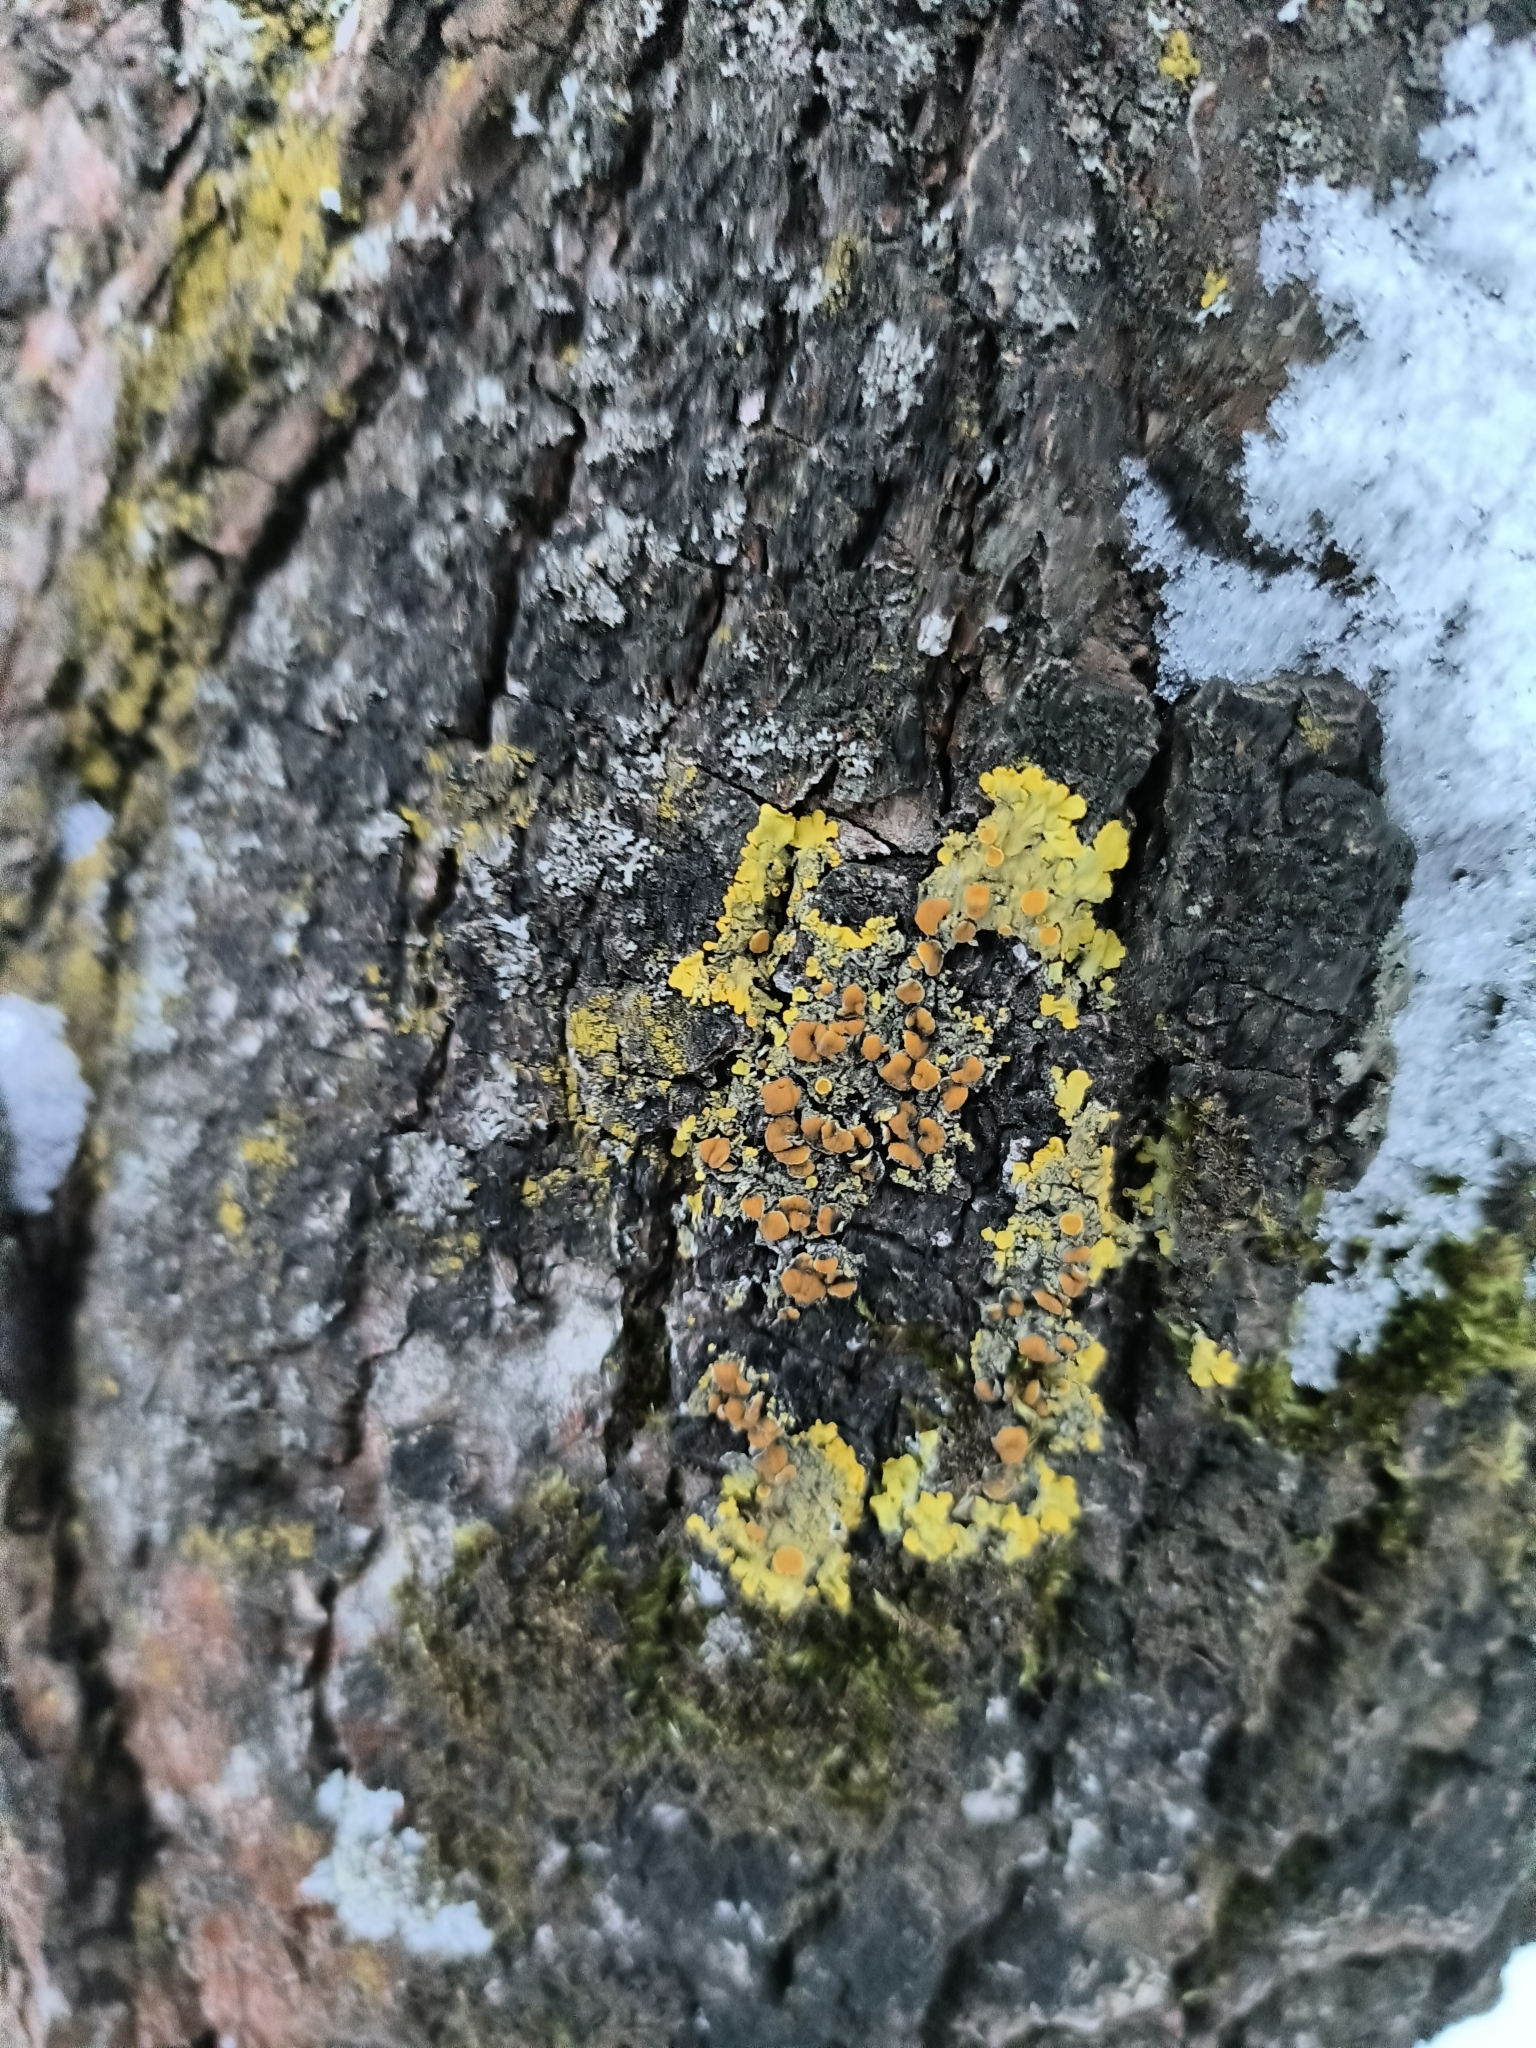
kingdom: Fungi
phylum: Ascomycota
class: Lecanoromycetes
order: Teloschistales
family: Teloschistaceae
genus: Xanthoria
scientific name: Xanthoria parietina
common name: Common orange lichen
